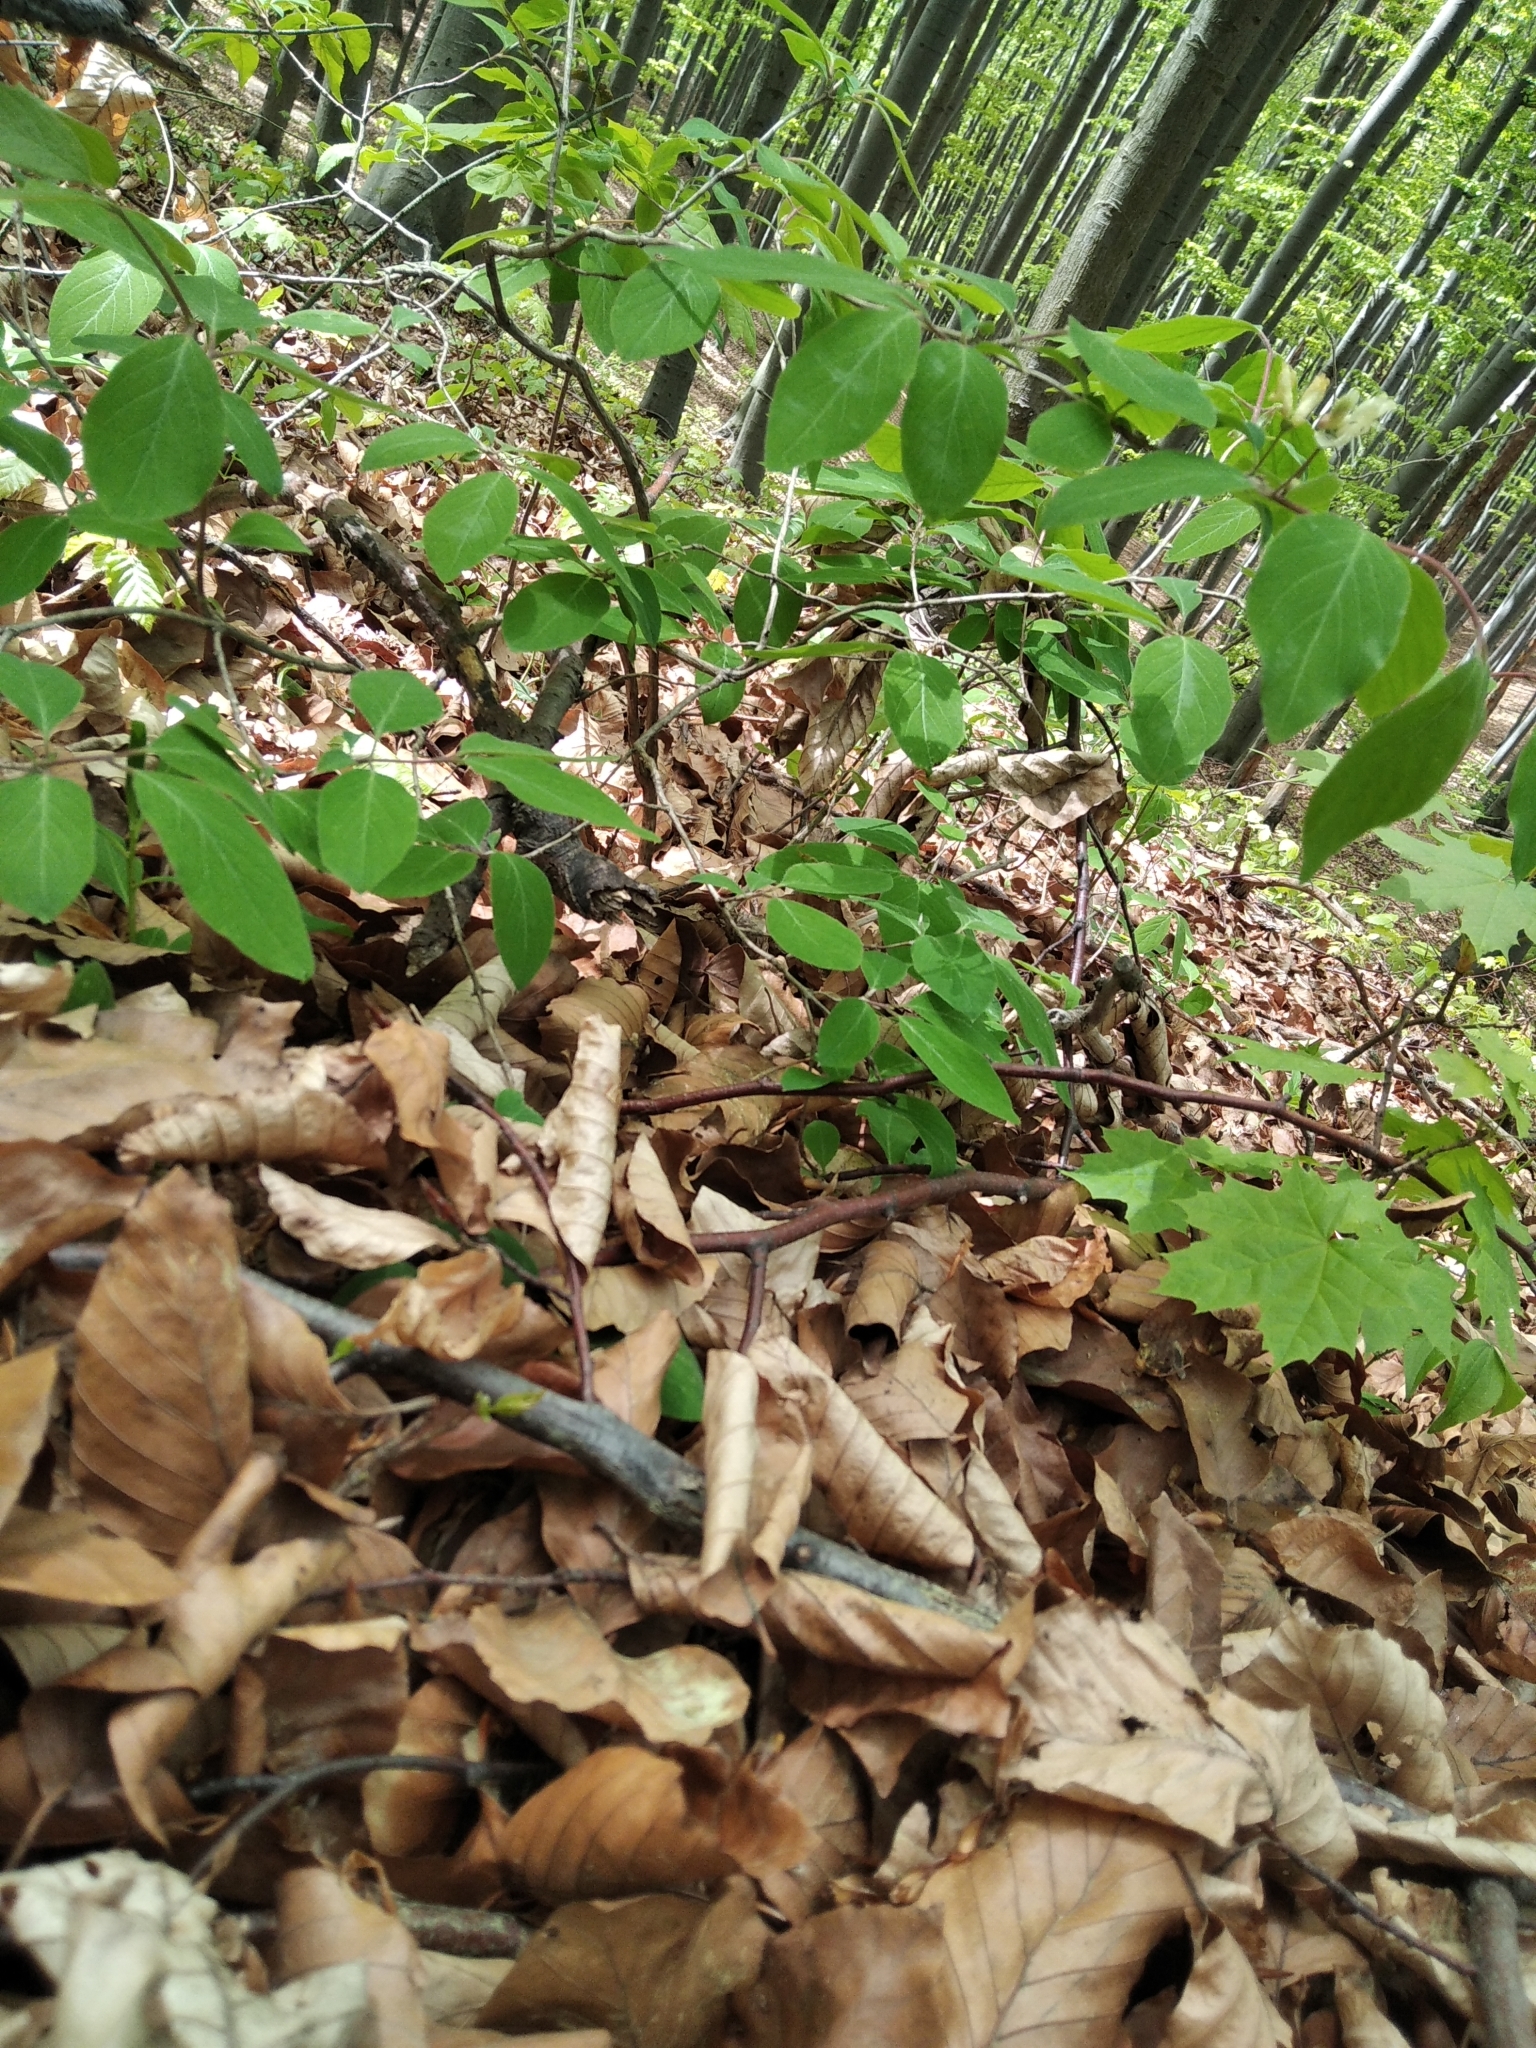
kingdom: Plantae
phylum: Tracheophyta
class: Magnoliopsida
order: Dipsacales
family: Caprifoliaceae
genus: Lonicera
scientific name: Lonicera xylosteum
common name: Fly honeysuckle
